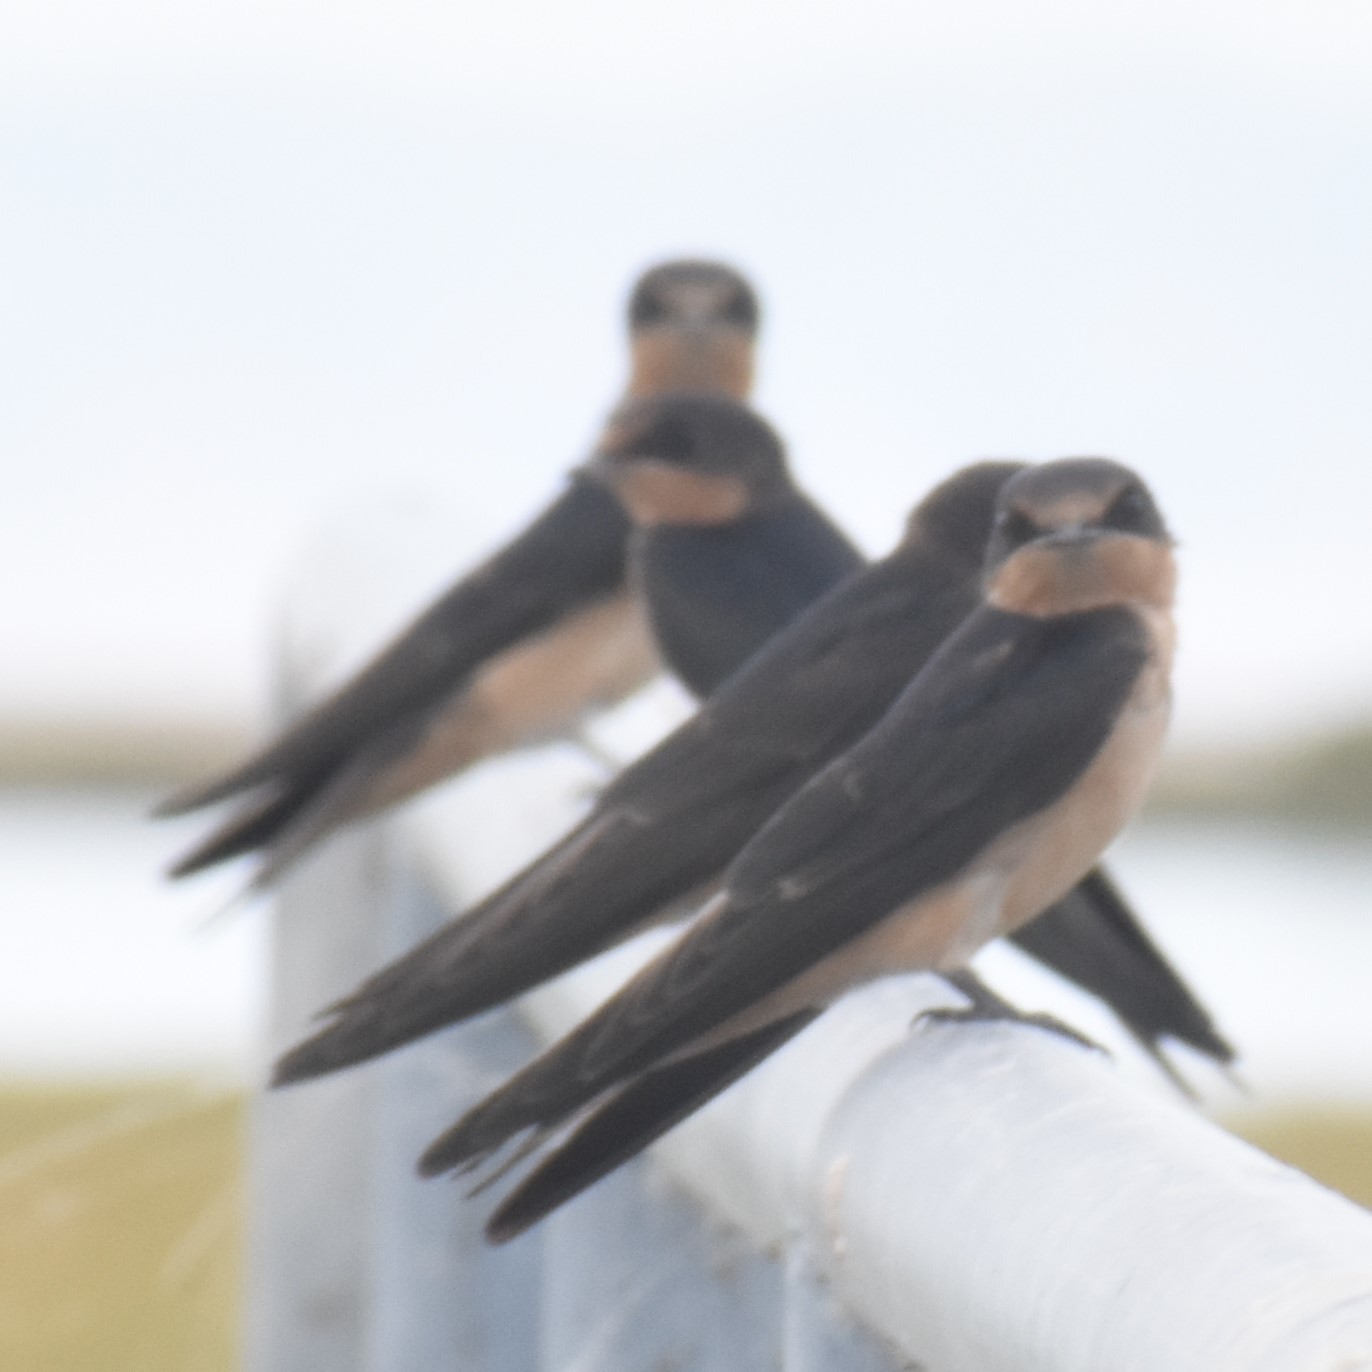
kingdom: Animalia
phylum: Chordata
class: Aves
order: Passeriformes
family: Hirundinidae
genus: Hirundo
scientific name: Hirundo rustica
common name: Barn swallow
